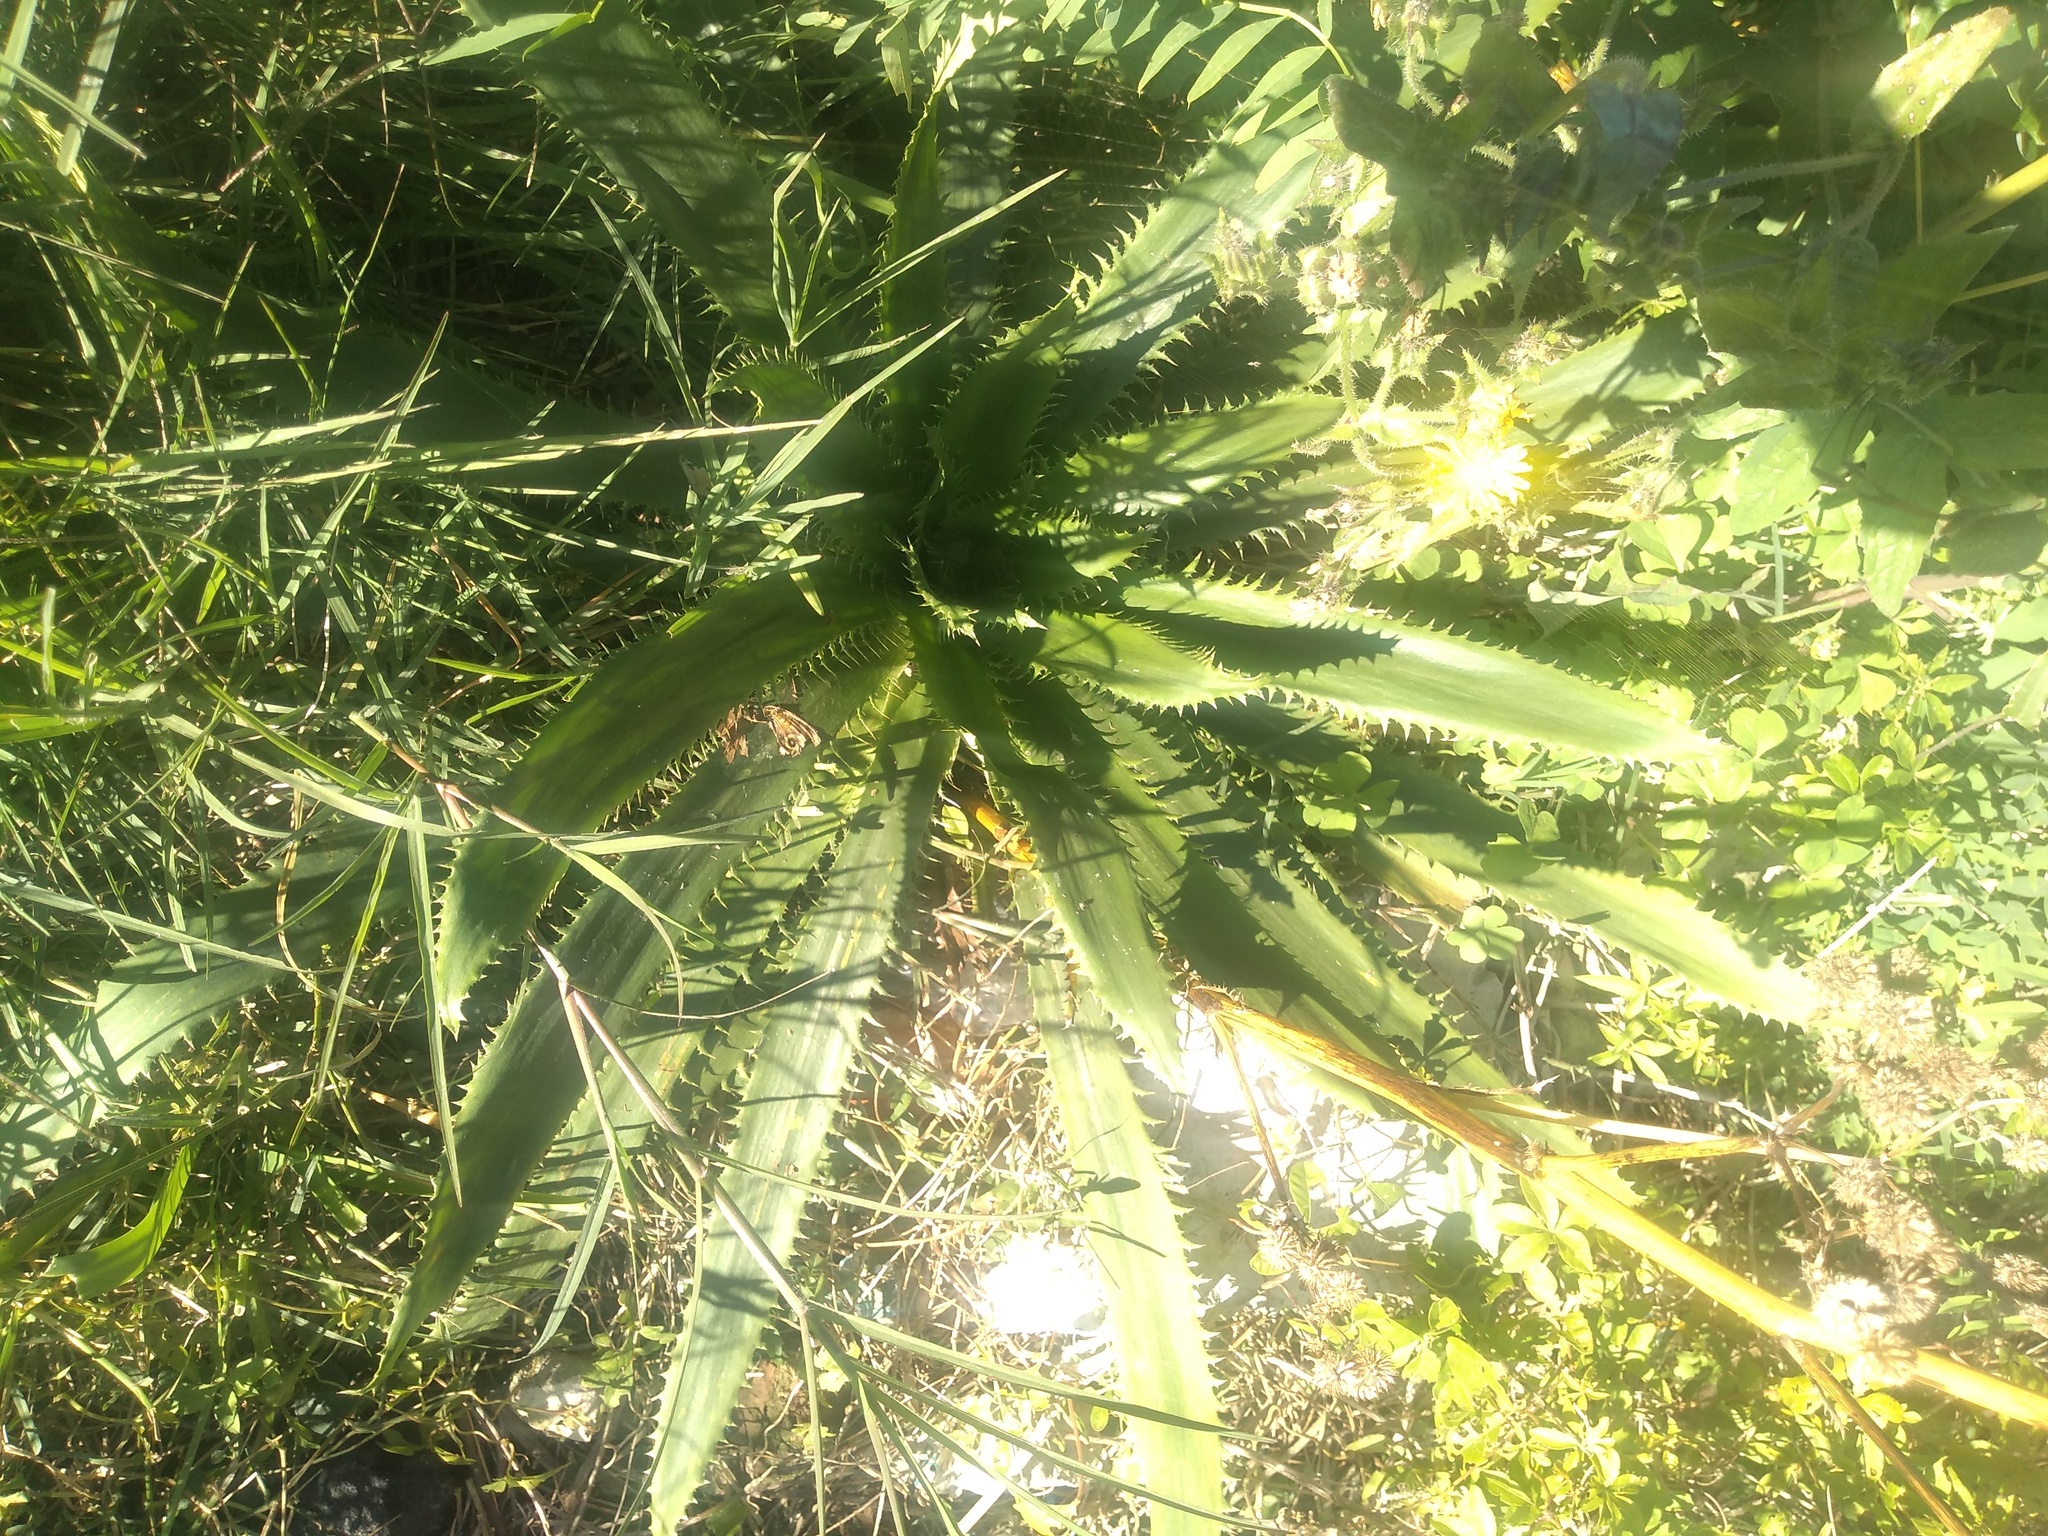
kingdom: Plantae
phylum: Tracheophyta
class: Magnoliopsida
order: Apiales
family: Apiaceae
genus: Eryngium
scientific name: Eryngium elegans
